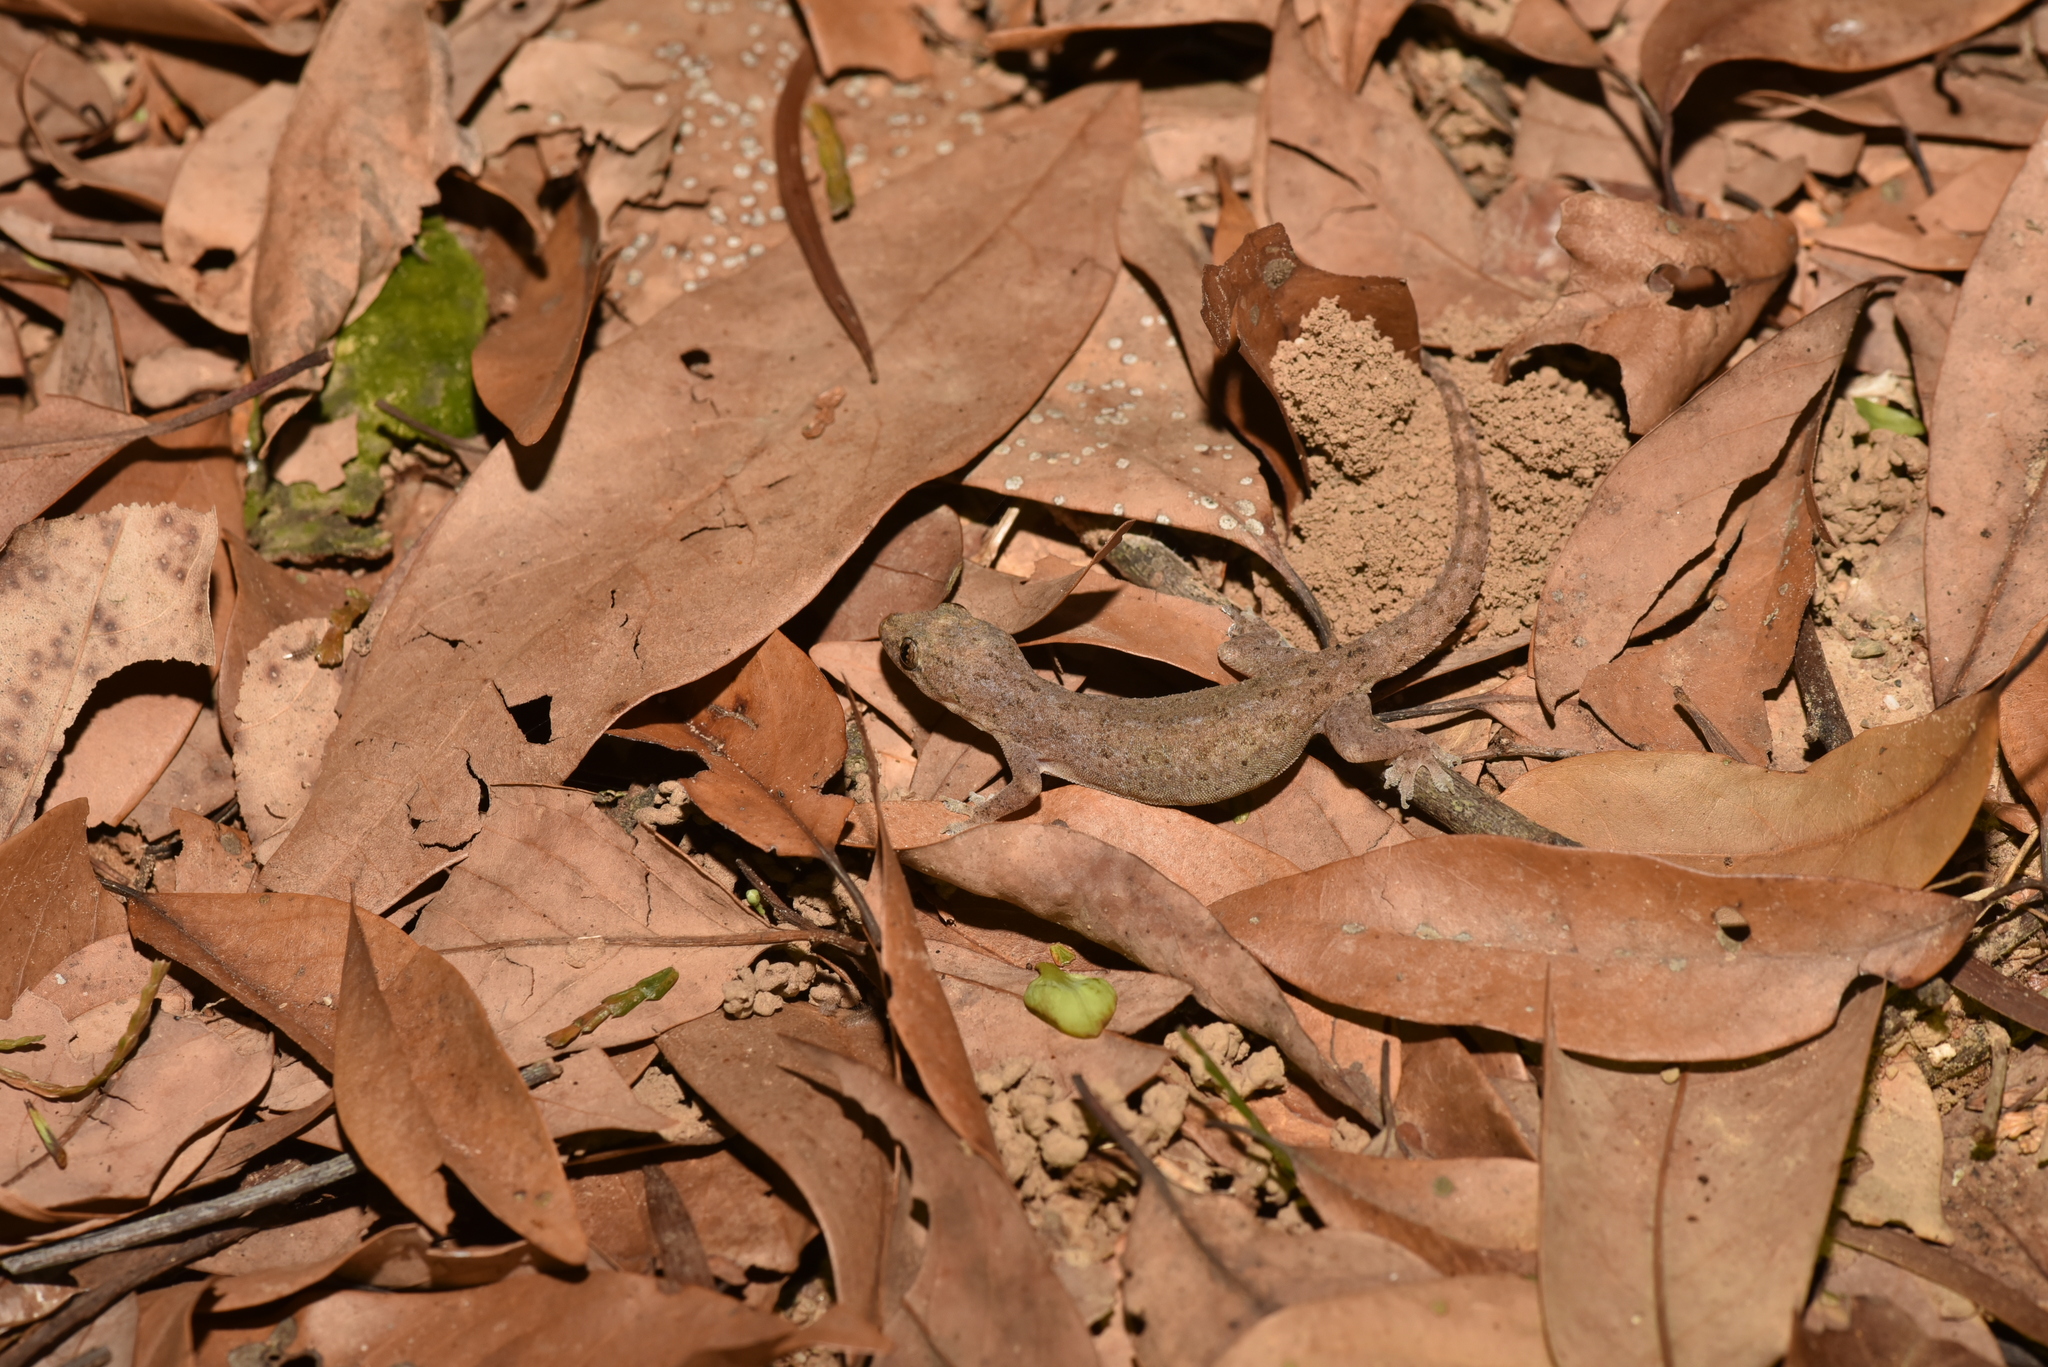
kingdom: Animalia
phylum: Chordata
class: Squamata
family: Gekkonidae
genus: Hemidactylus
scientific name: Hemidactylus frenatus
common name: Common house gecko
